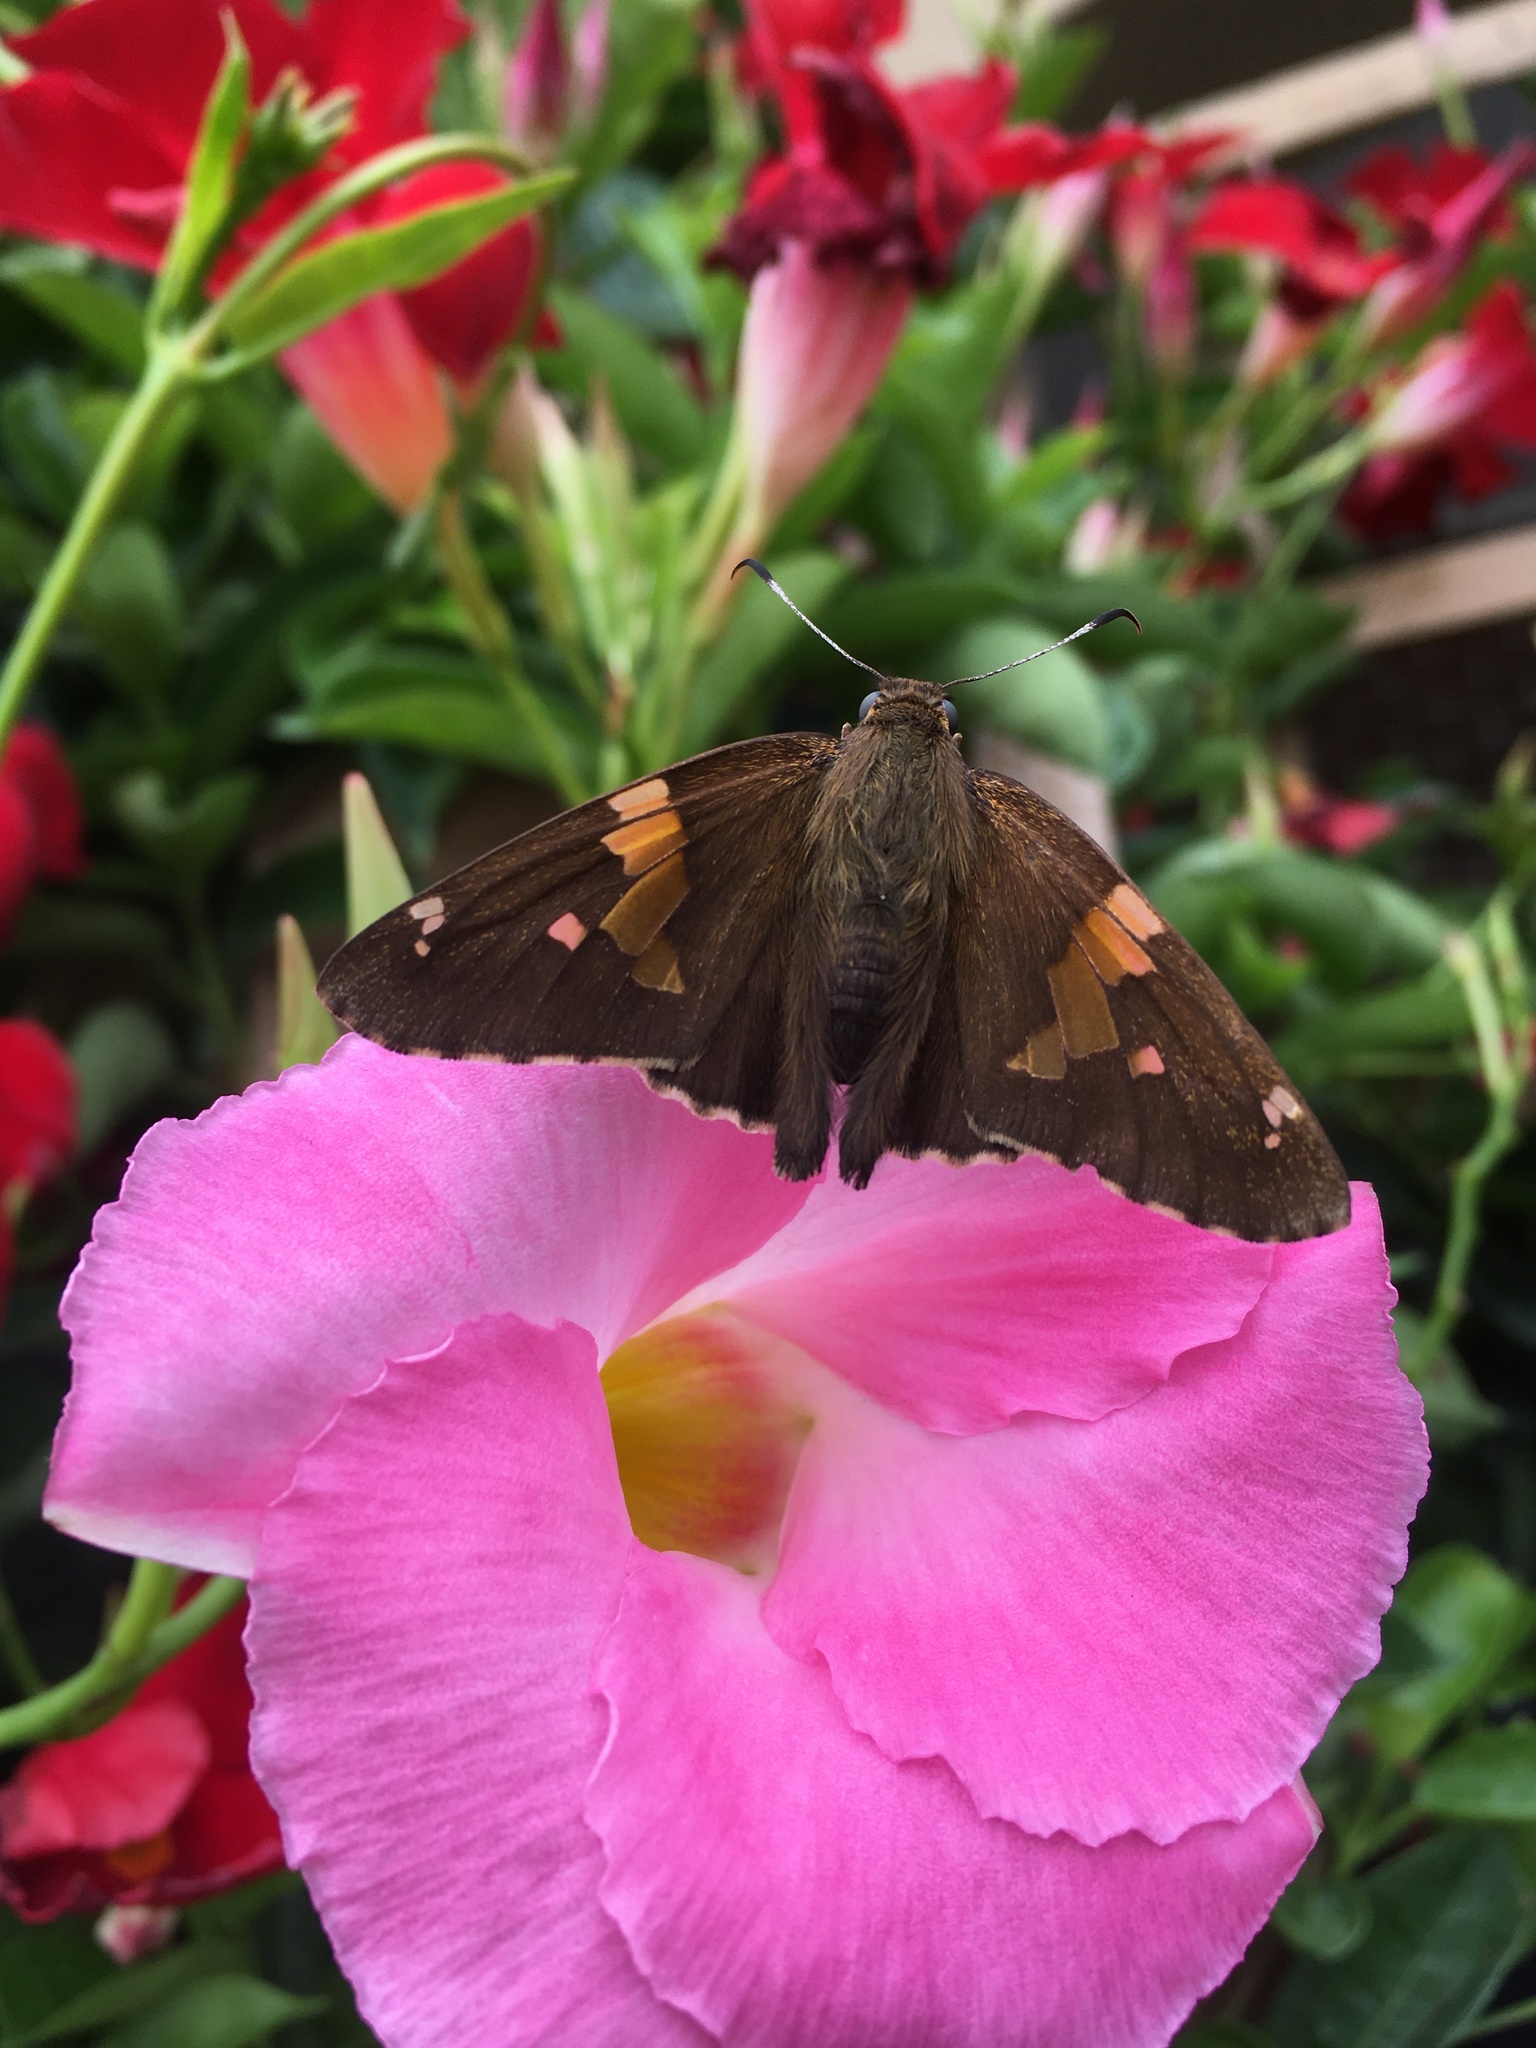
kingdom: Animalia
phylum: Arthropoda
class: Insecta
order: Lepidoptera
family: Hesperiidae
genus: Epargyreus
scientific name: Epargyreus clarus
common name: Silver-spotted skipper
